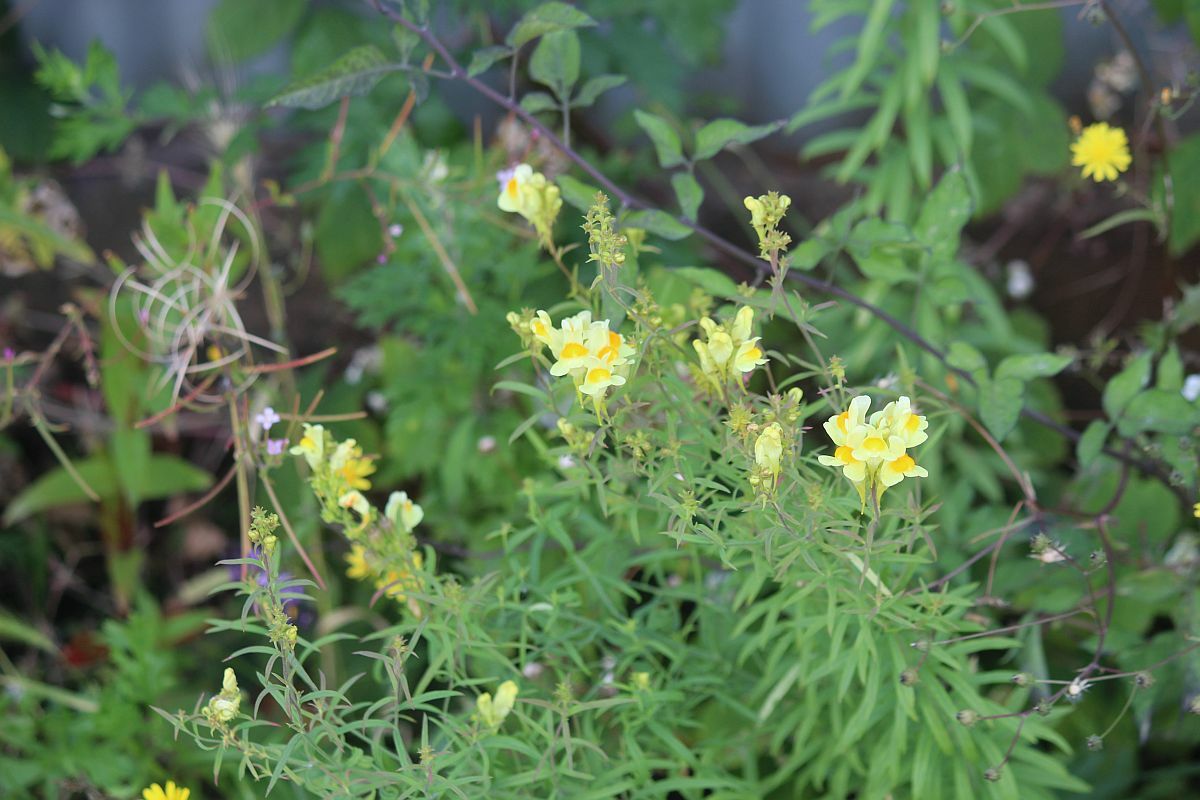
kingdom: Plantae
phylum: Tracheophyta
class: Magnoliopsida
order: Lamiales
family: Plantaginaceae
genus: Linaria
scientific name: Linaria vulgaris
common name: Butter and eggs
